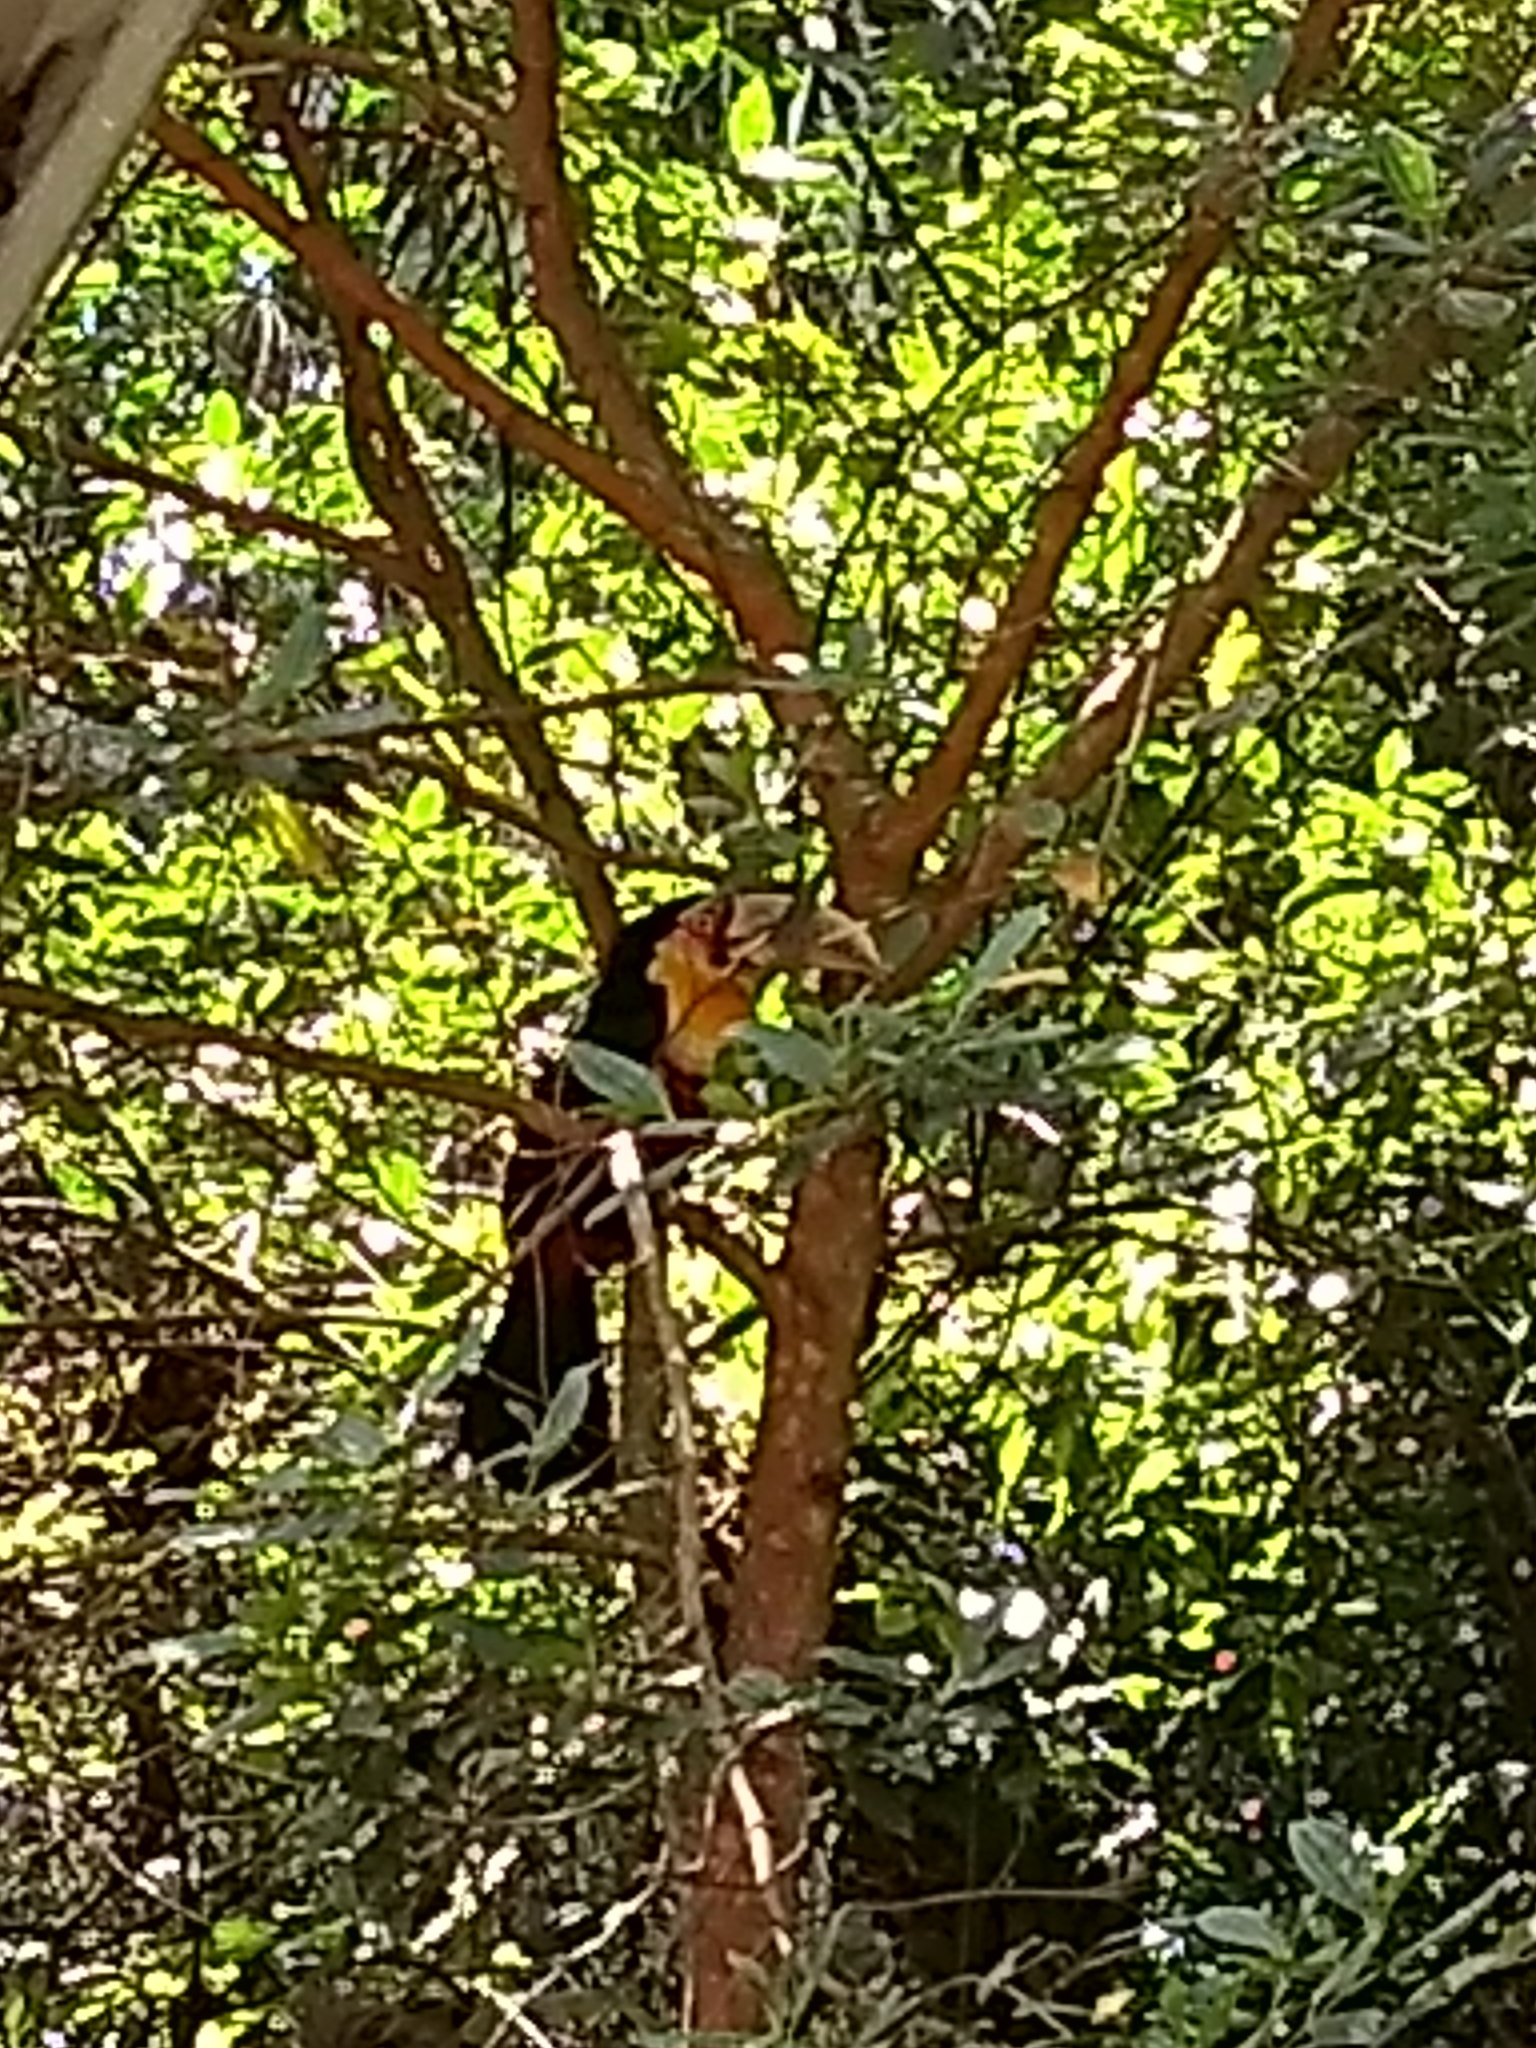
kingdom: Animalia
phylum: Chordata
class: Aves
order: Piciformes
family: Ramphastidae
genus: Ramphastos
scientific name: Ramphastos dicolorus
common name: Green-billed toucan
